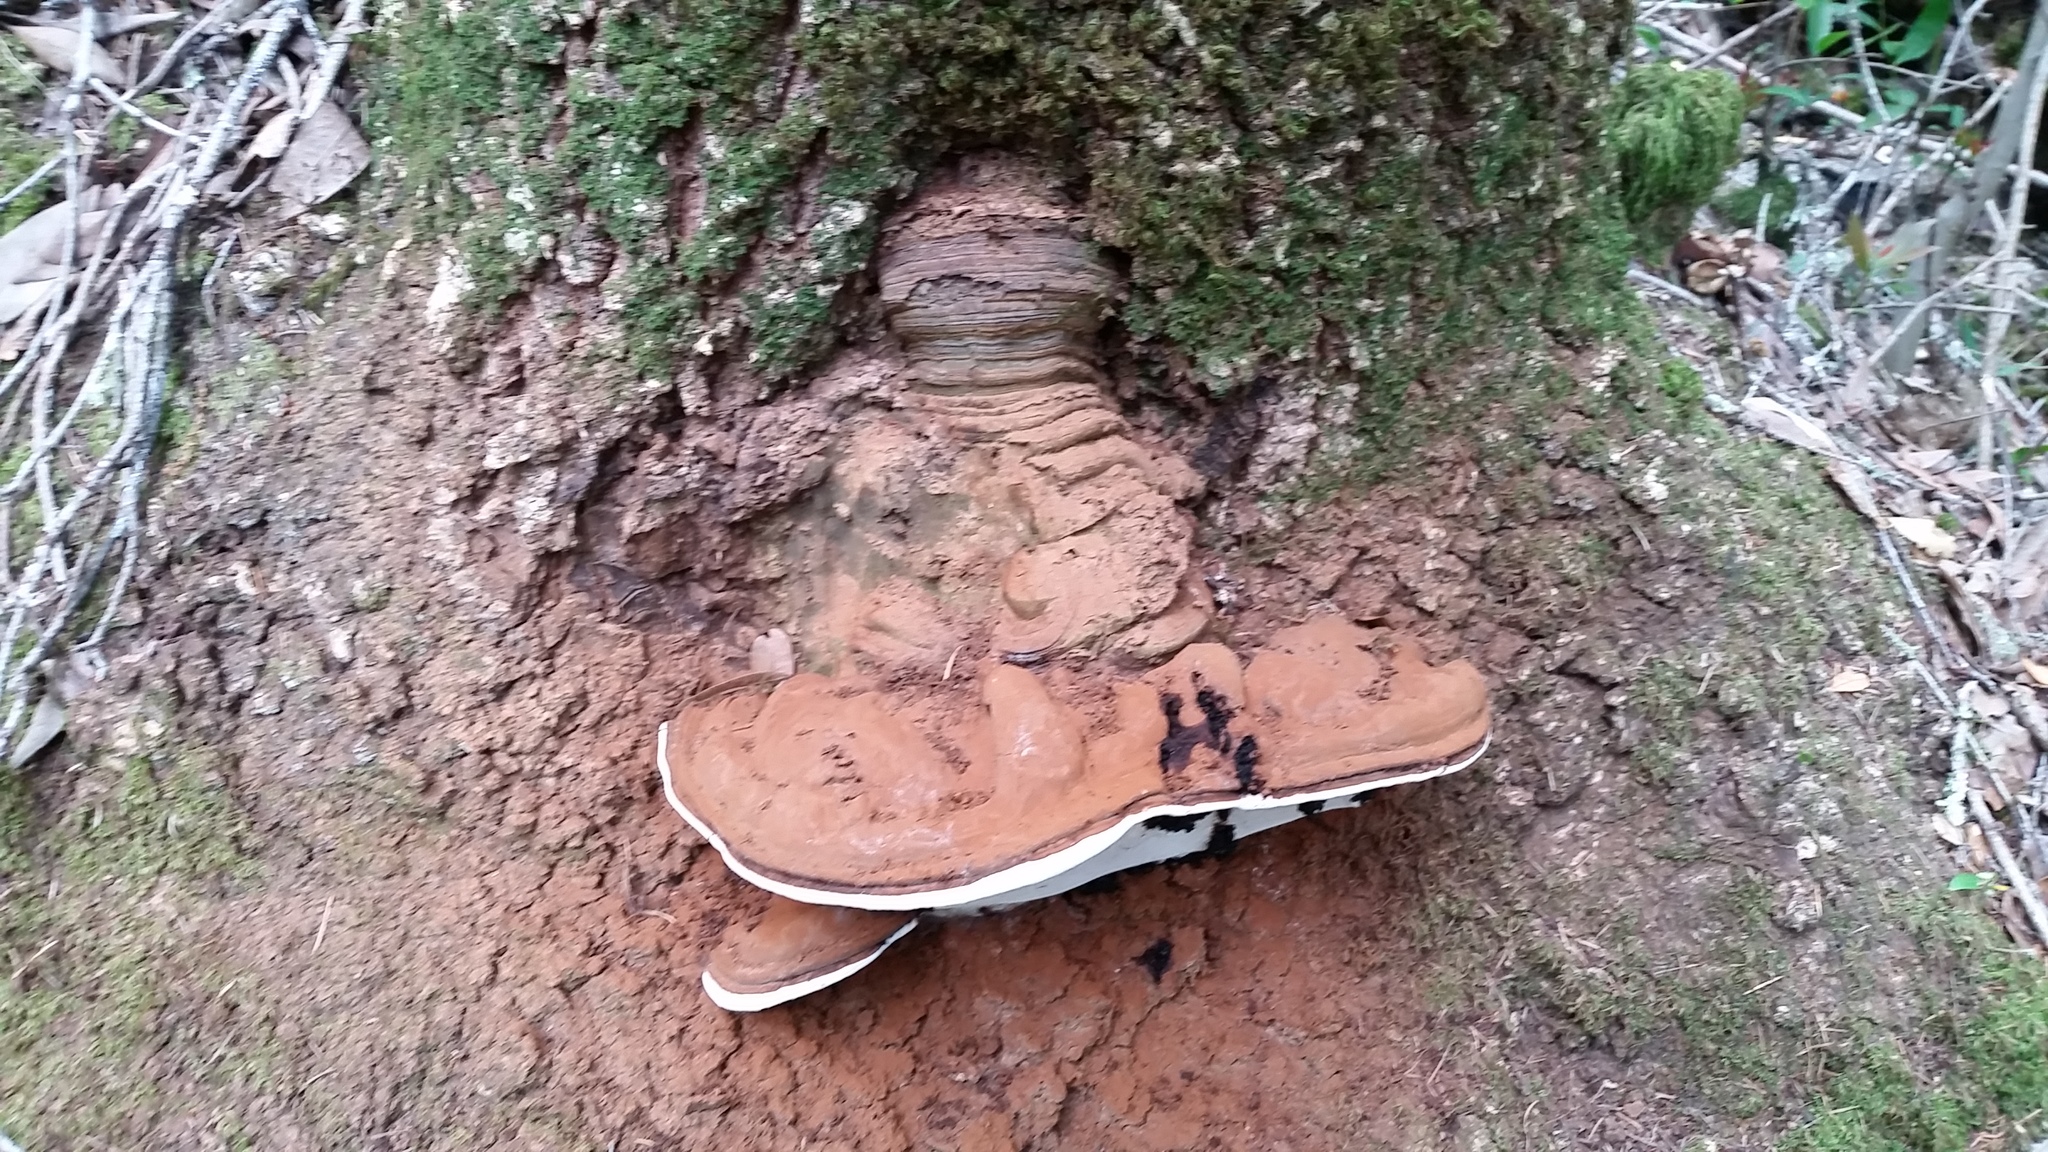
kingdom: Fungi
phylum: Basidiomycota
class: Agaricomycetes
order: Polyporales
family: Polyporaceae
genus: Ganoderma
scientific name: Ganoderma brownii
